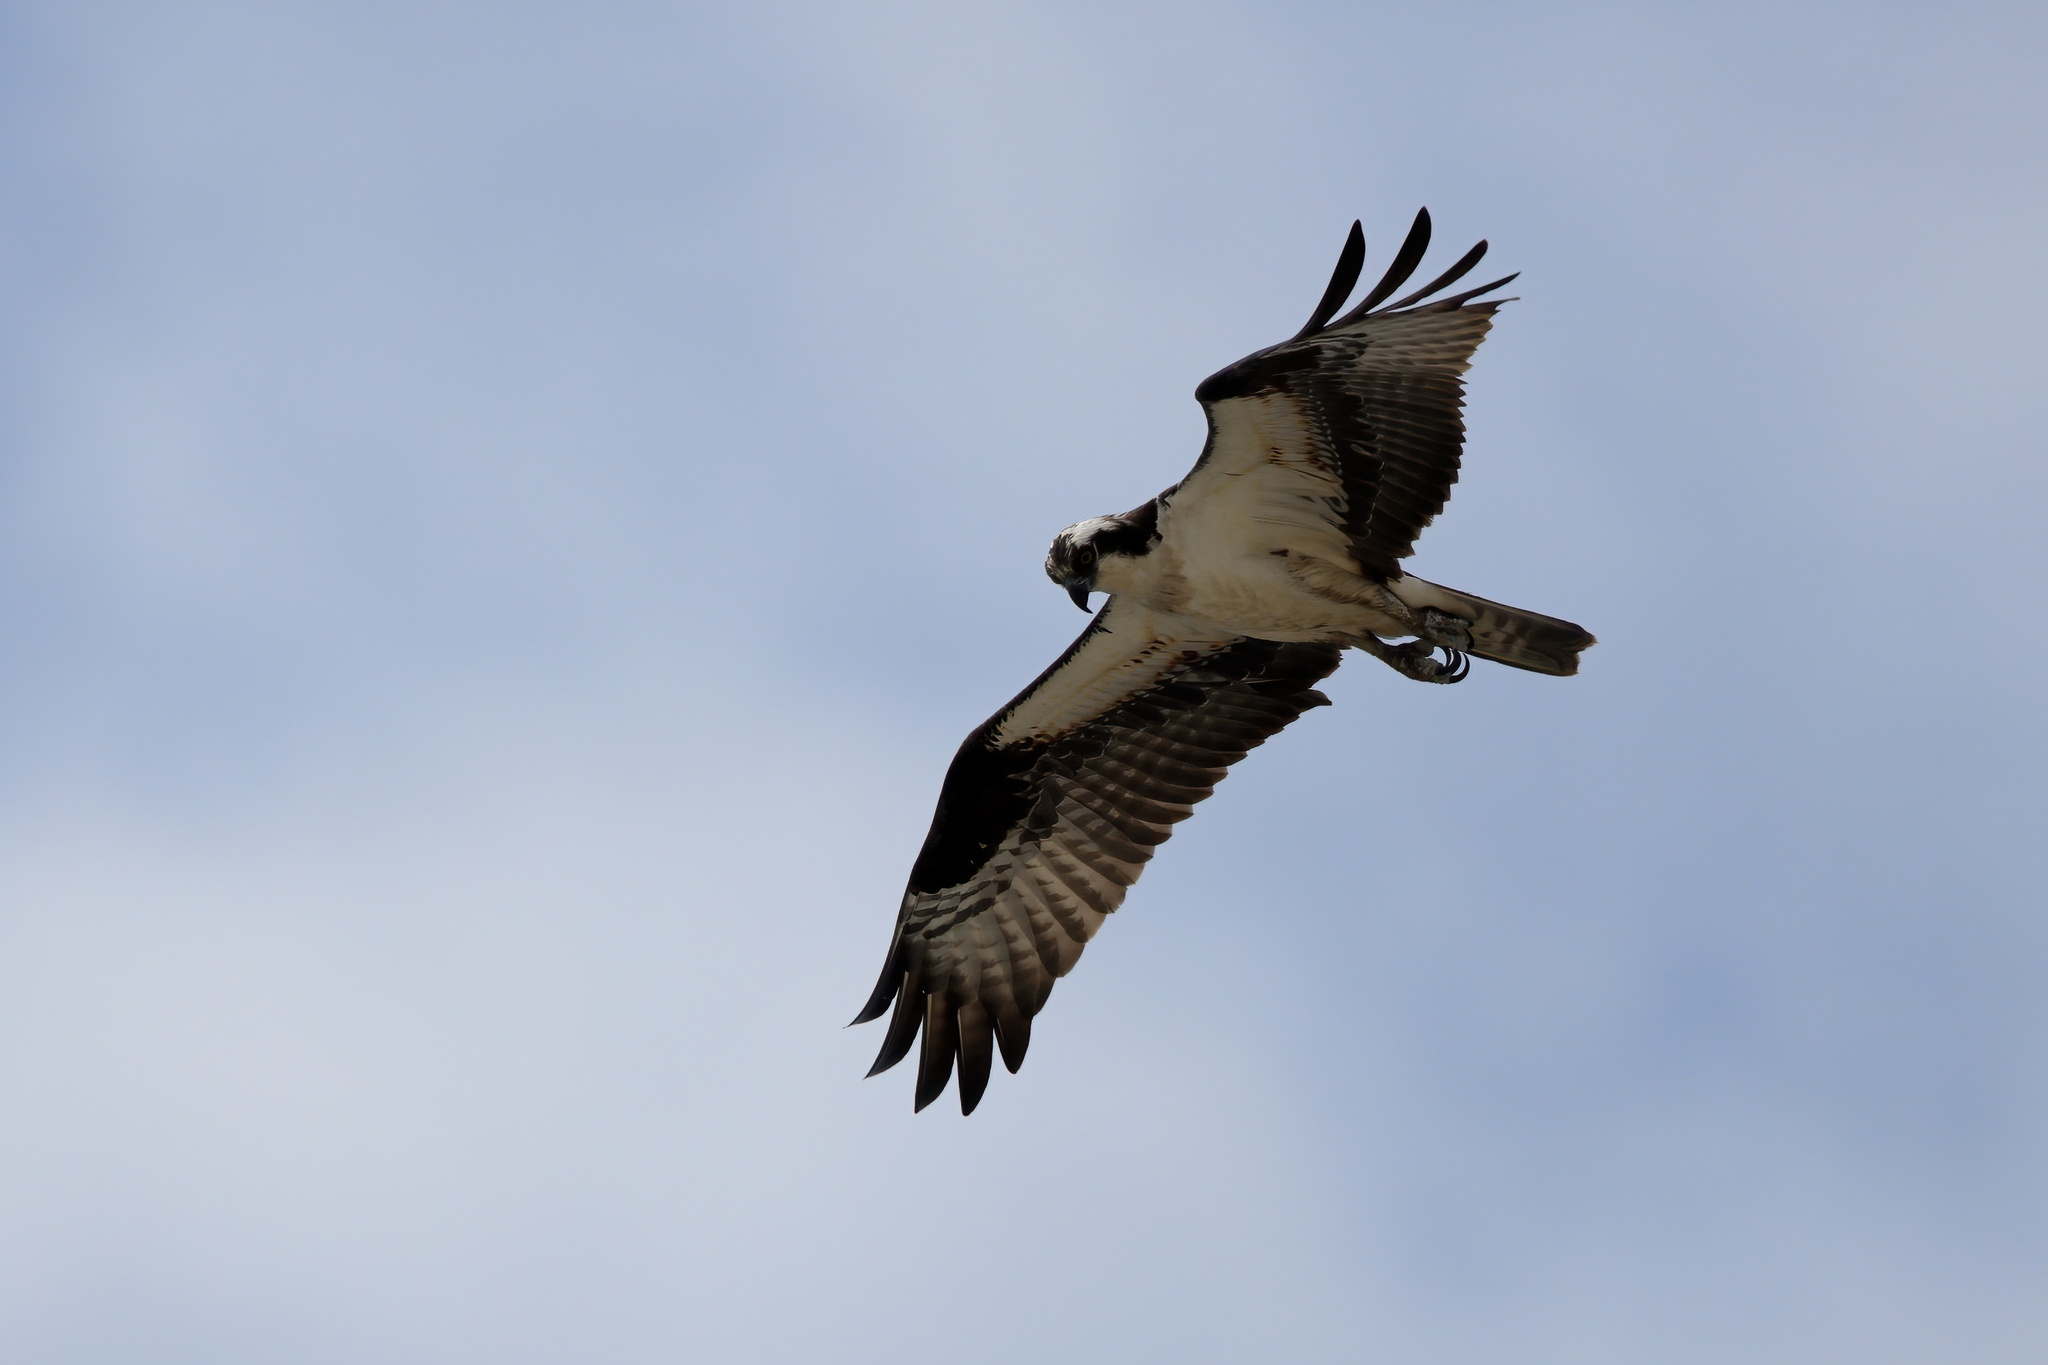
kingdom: Animalia
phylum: Chordata
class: Aves
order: Accipitriformes
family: Pandionidae
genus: Pandion
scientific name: Pandion haliaetus
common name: Osprey
